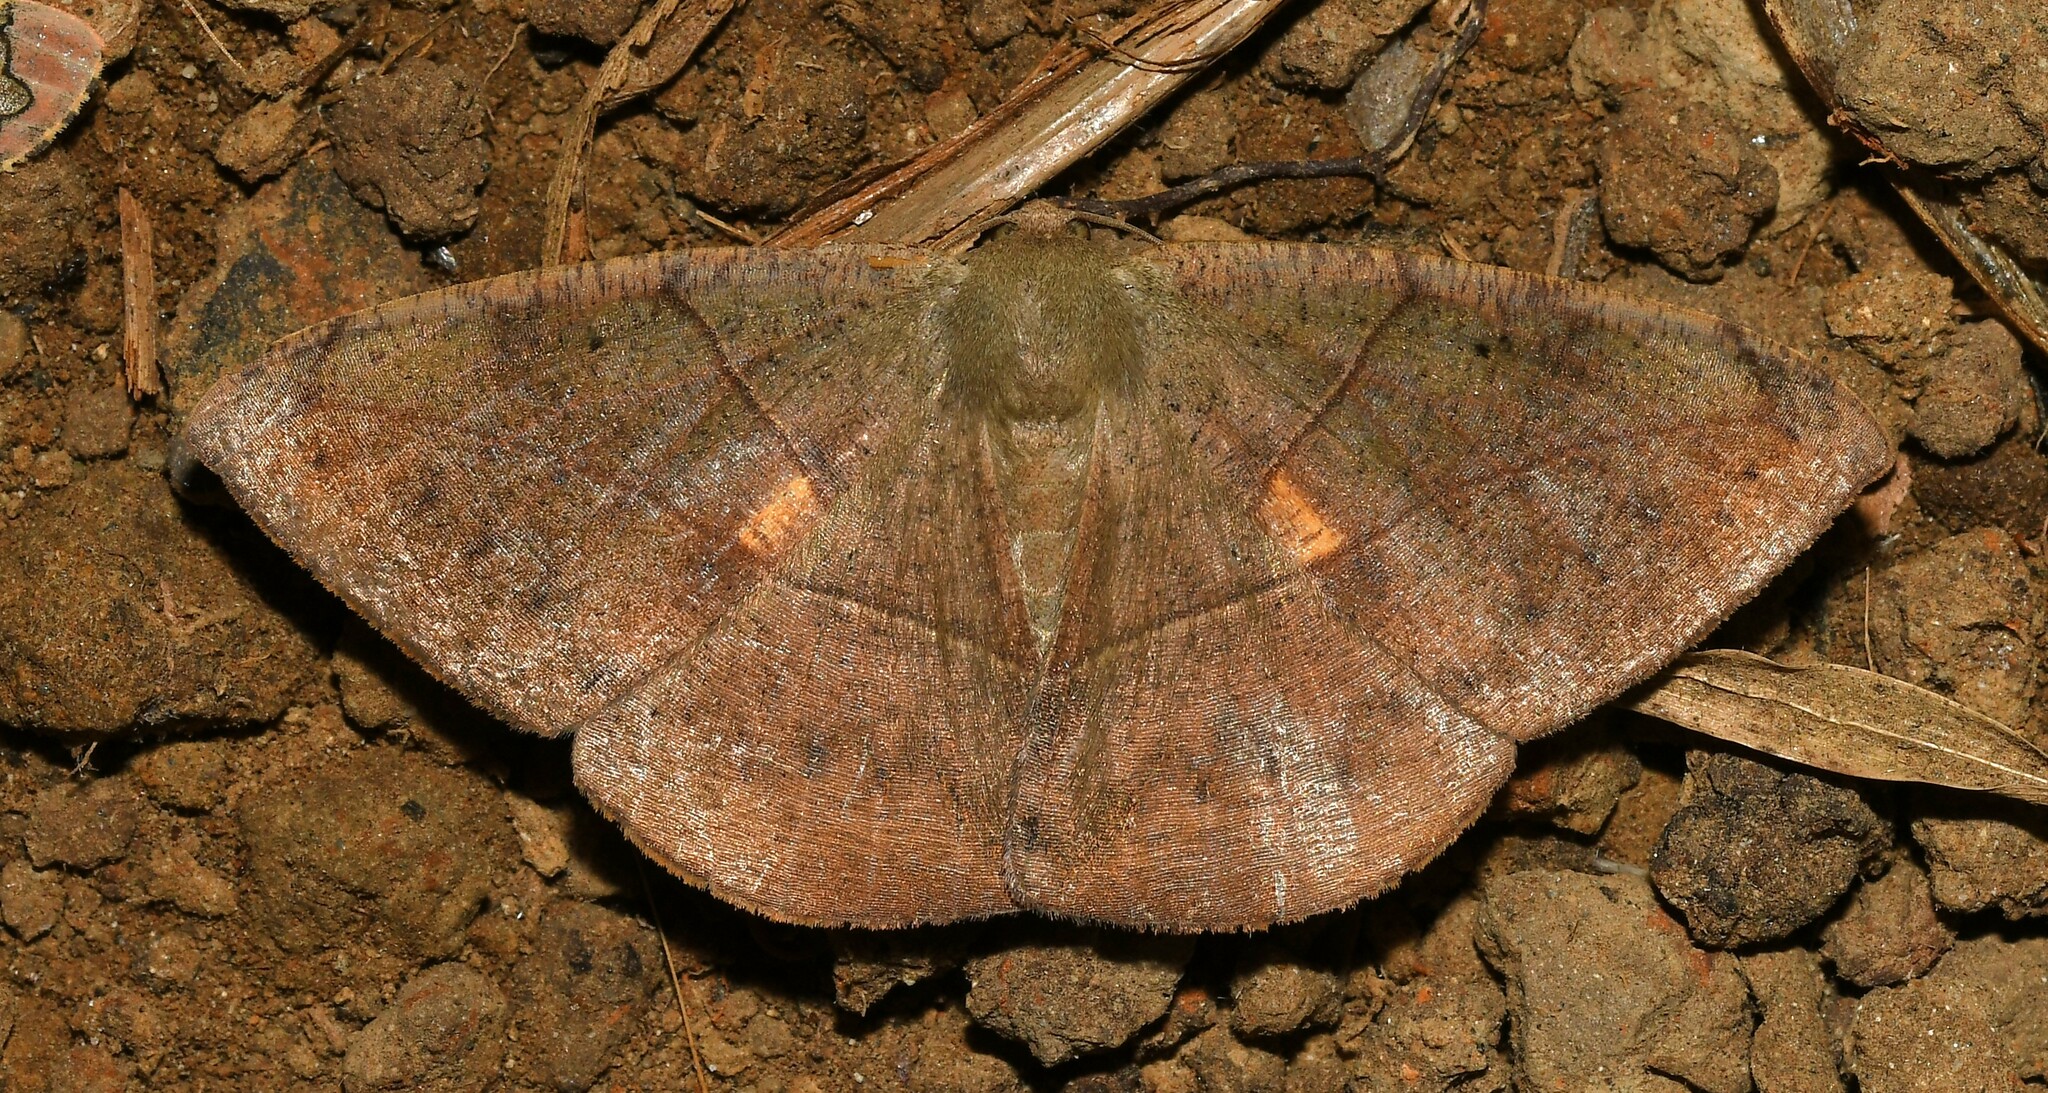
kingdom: Animalia
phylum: Arthropoda
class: Insecta
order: Lepidoptera
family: Geometridae
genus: Oxydia
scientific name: Oxydia trychiata
